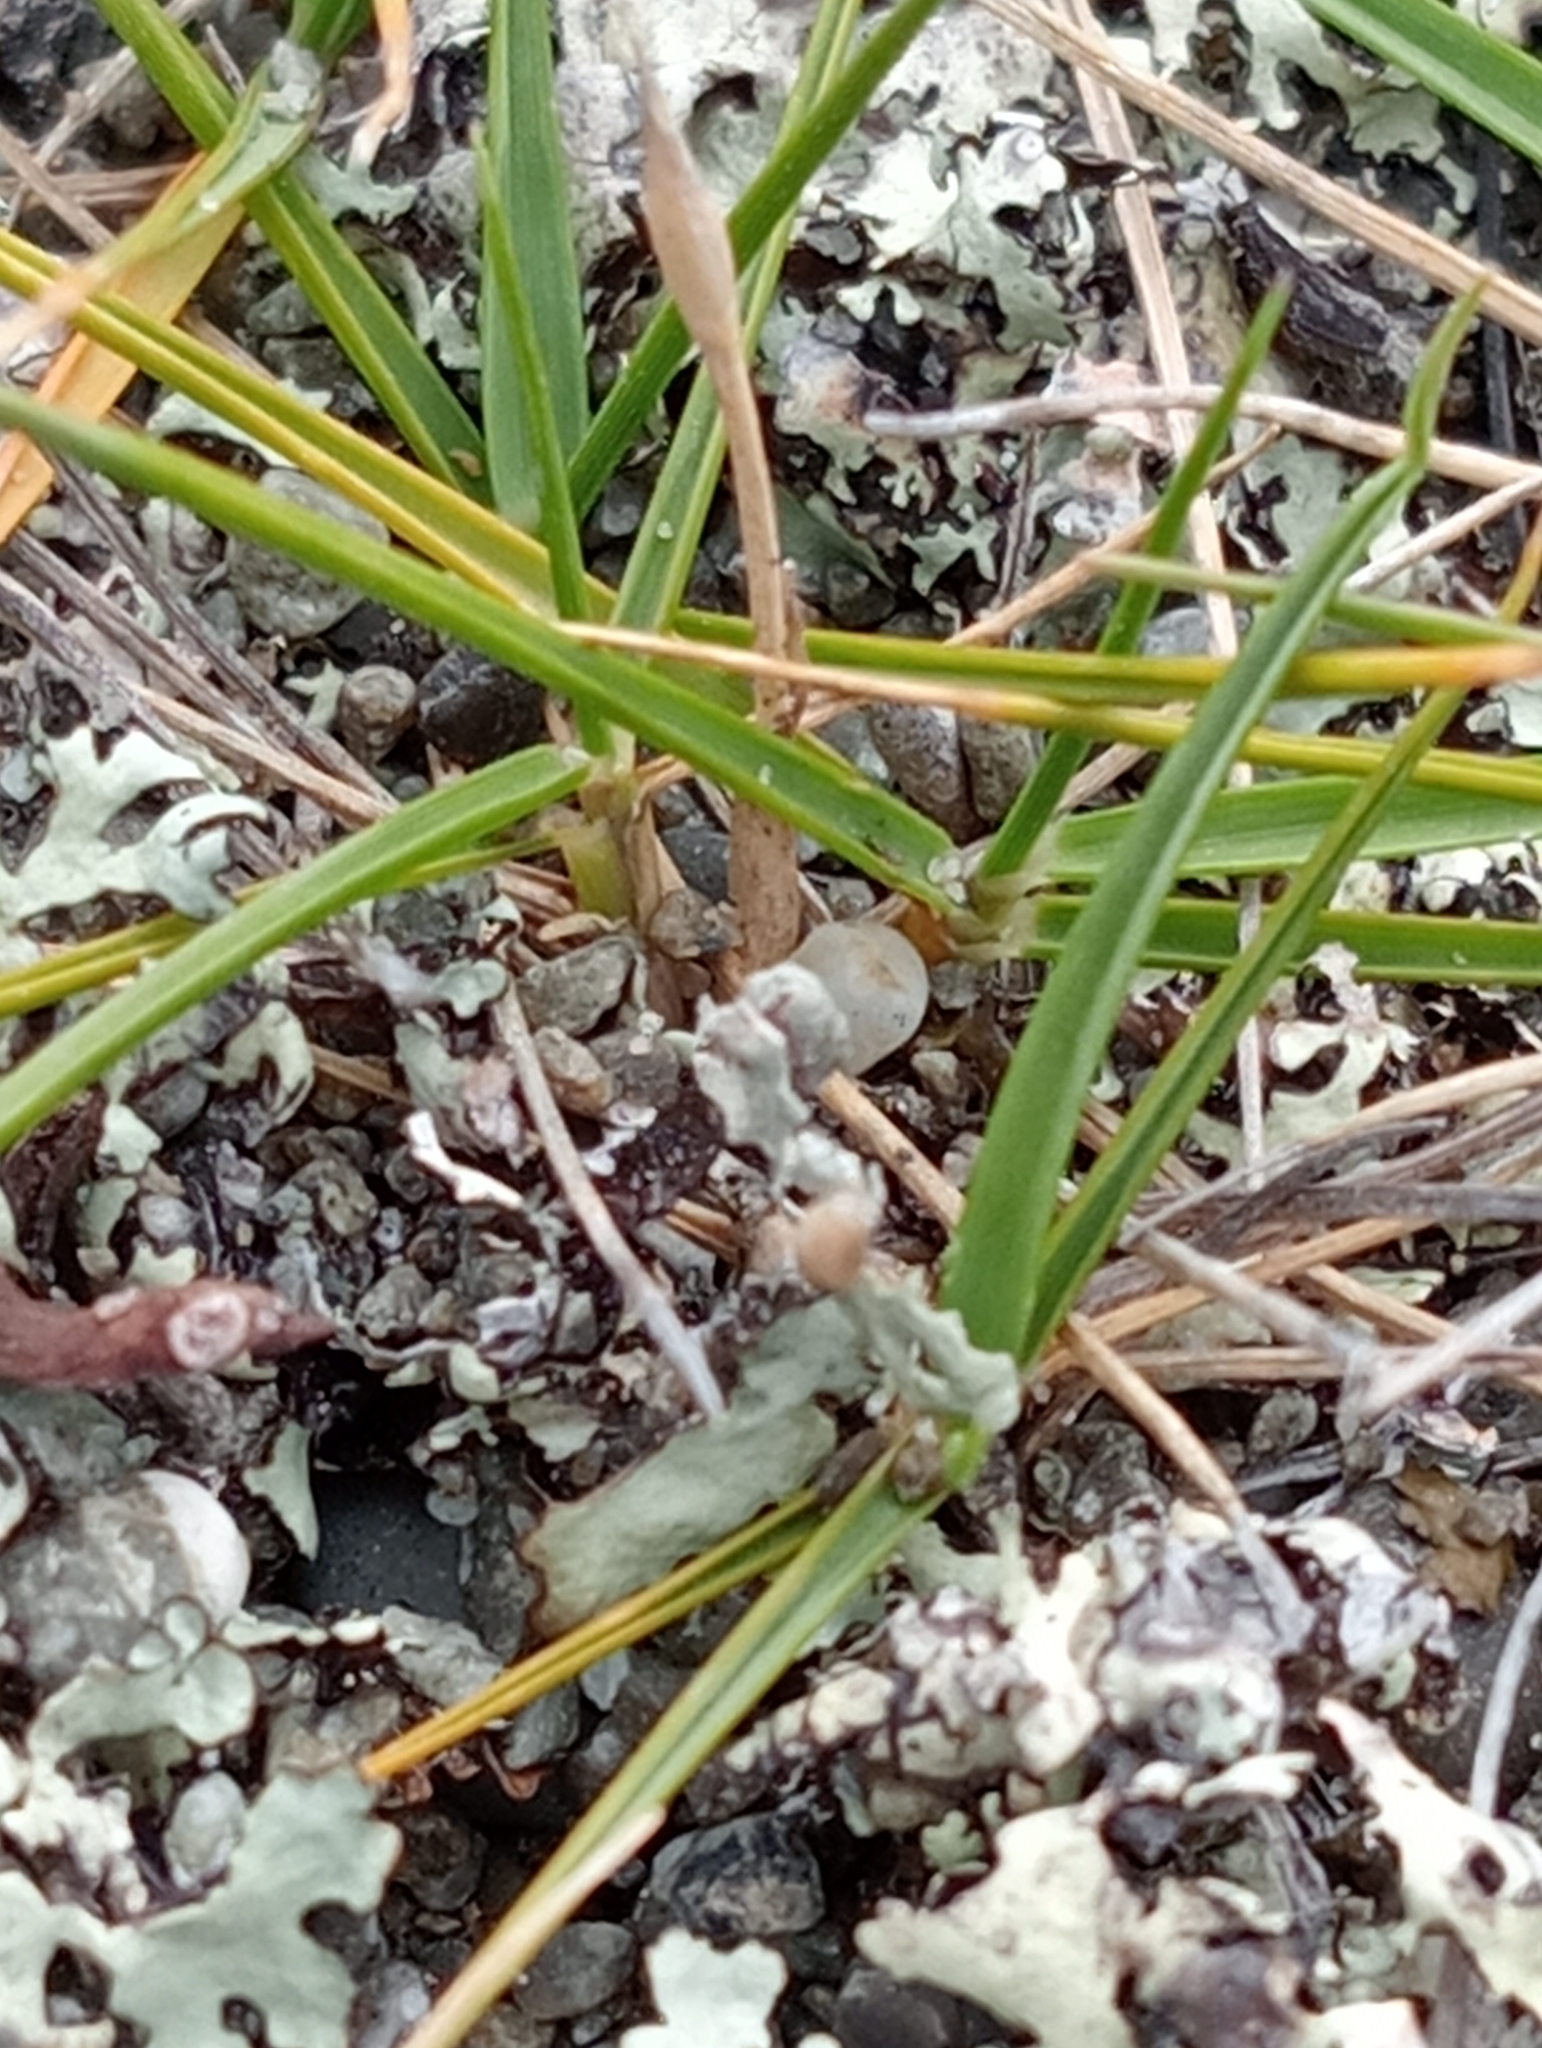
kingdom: Plantae
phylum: Tracheophyta
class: Liliopsida
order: Poales
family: Poaceae
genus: Zoysia
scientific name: Zoysia minima
